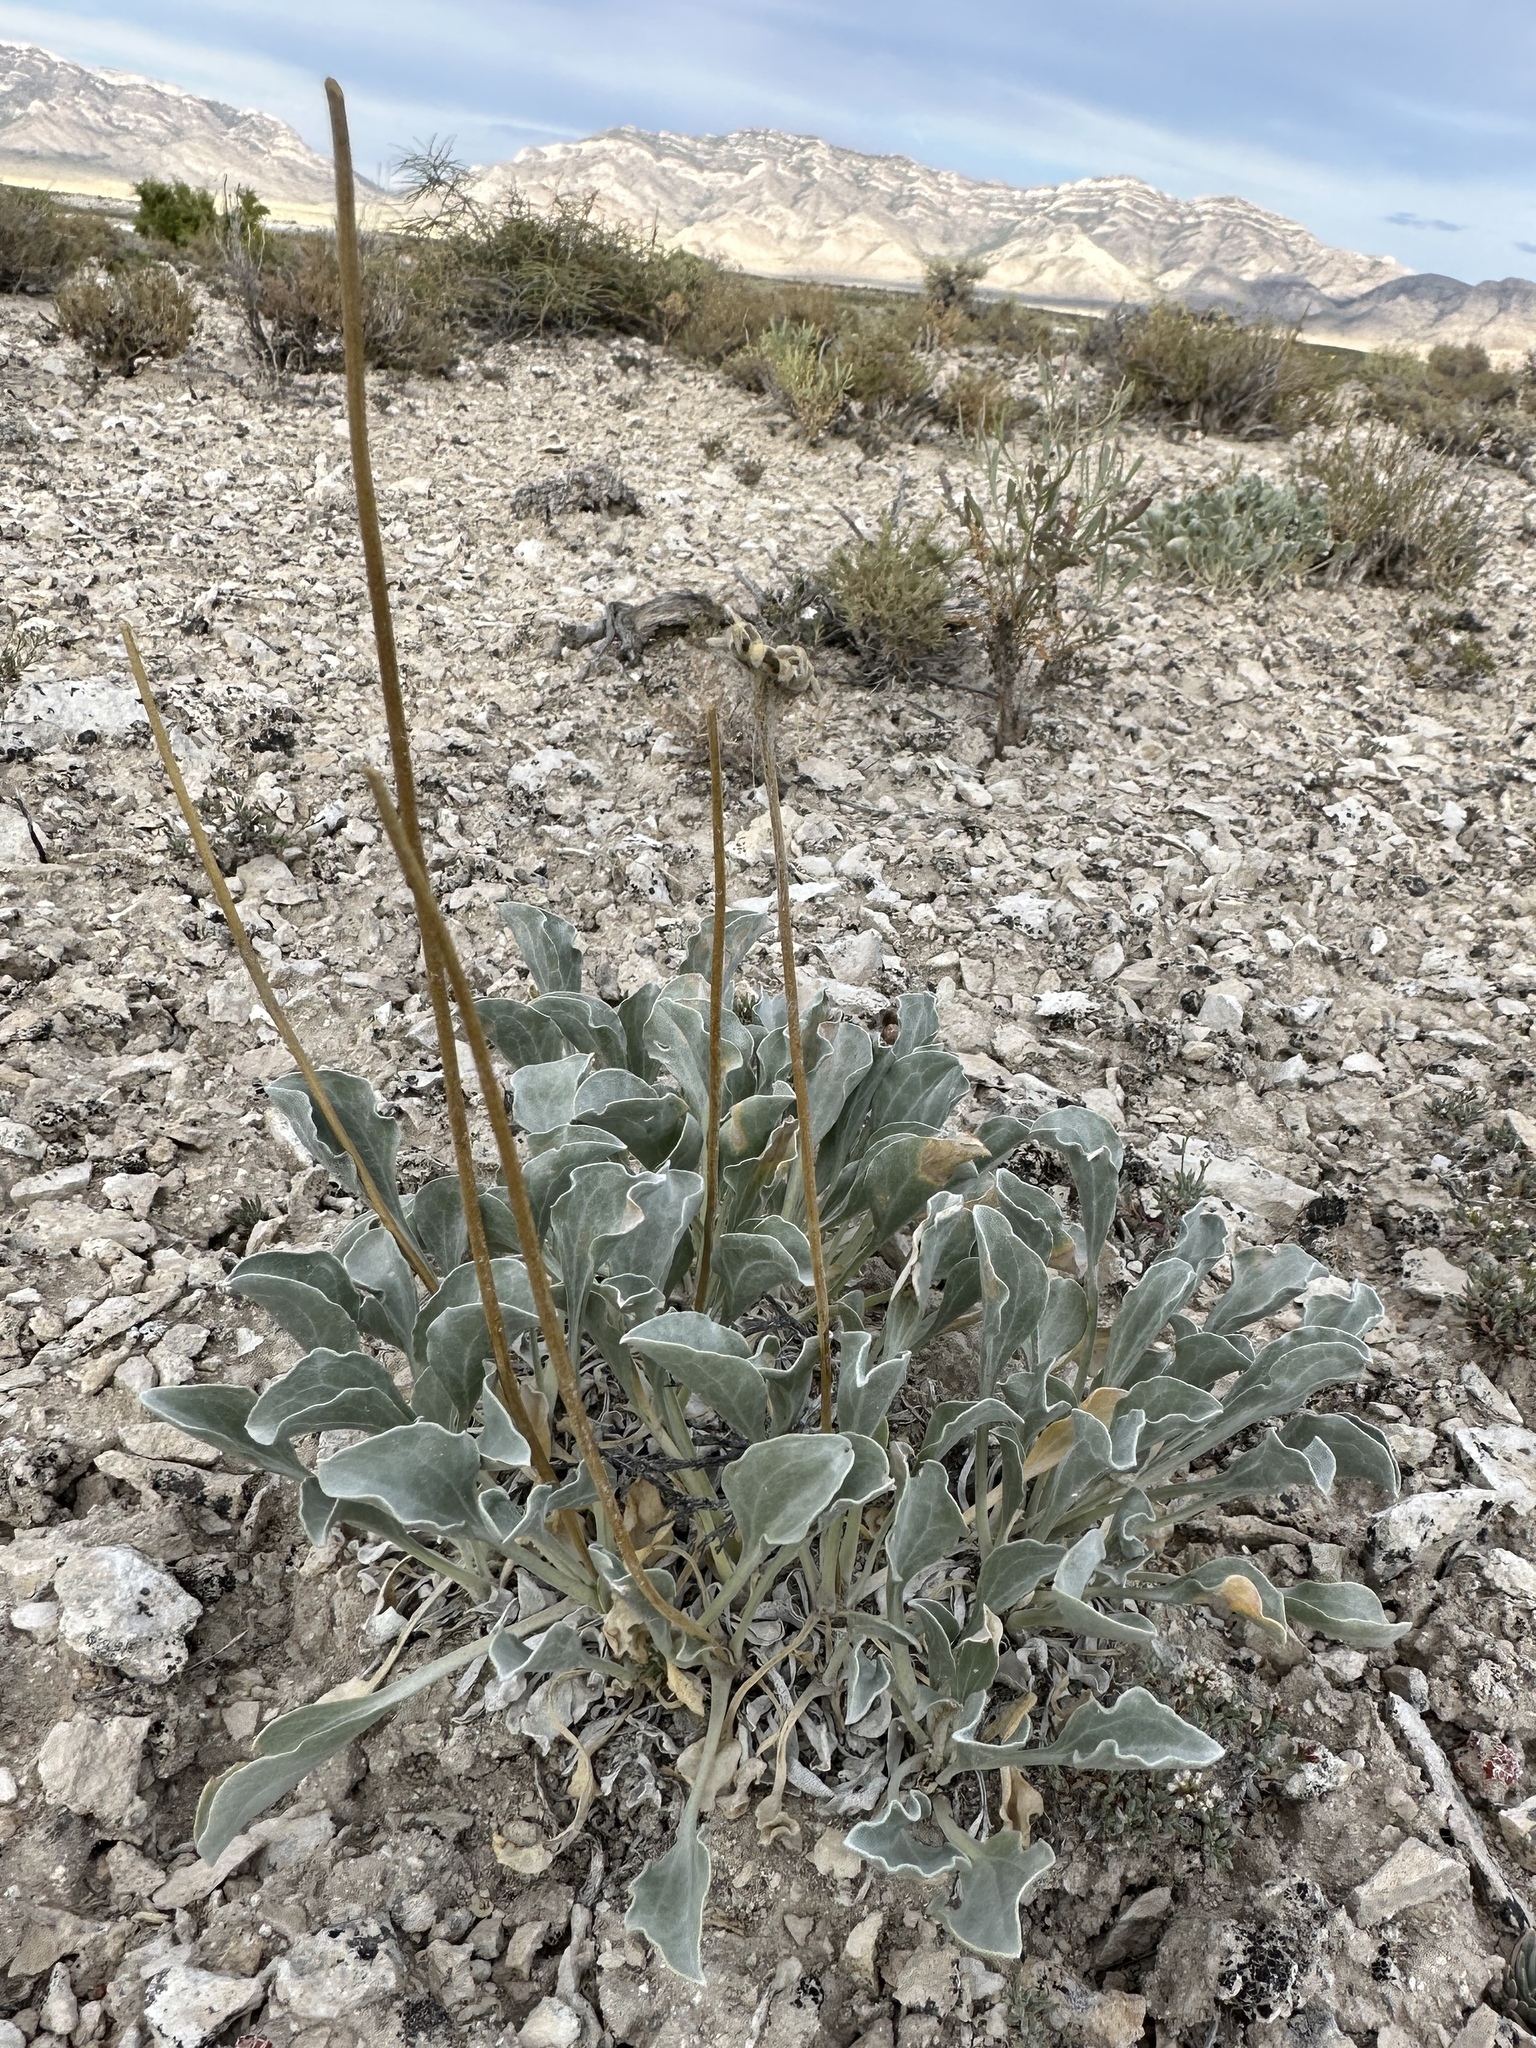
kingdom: Plantae
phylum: Tracheophyta
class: Magnoliopsida
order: Asterales
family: Asteraceae
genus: Enceliopsis
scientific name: Enceliopsis nudicaulis
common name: Naked-stem daisy
